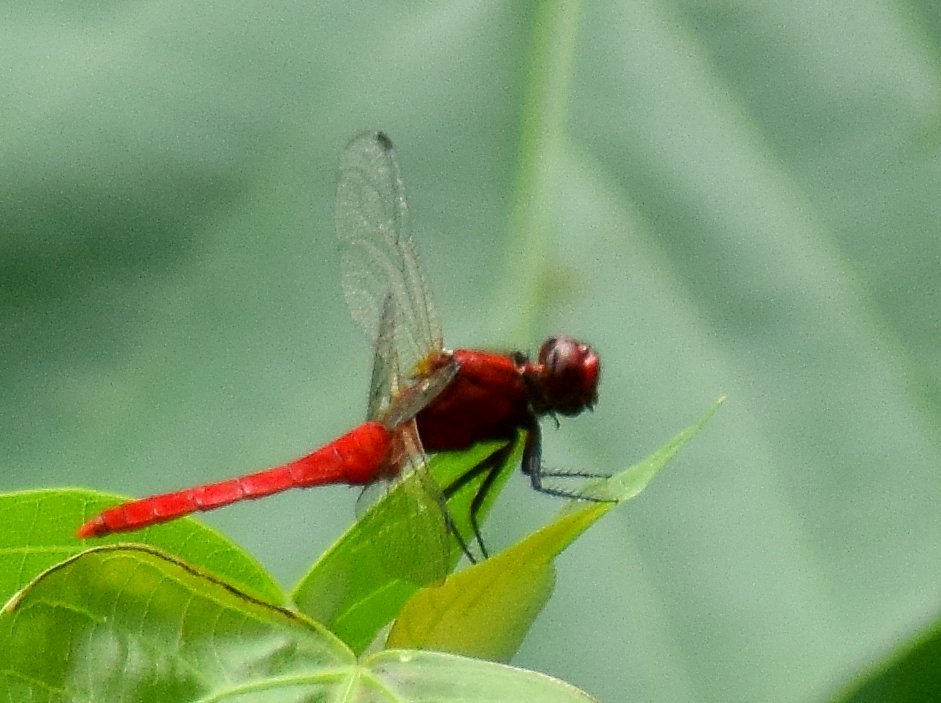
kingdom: Animalia
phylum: Arthropoda
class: Insecta
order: Odonata
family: Libellulidae
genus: Rhodothemis
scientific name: Rhodothemis rufa
